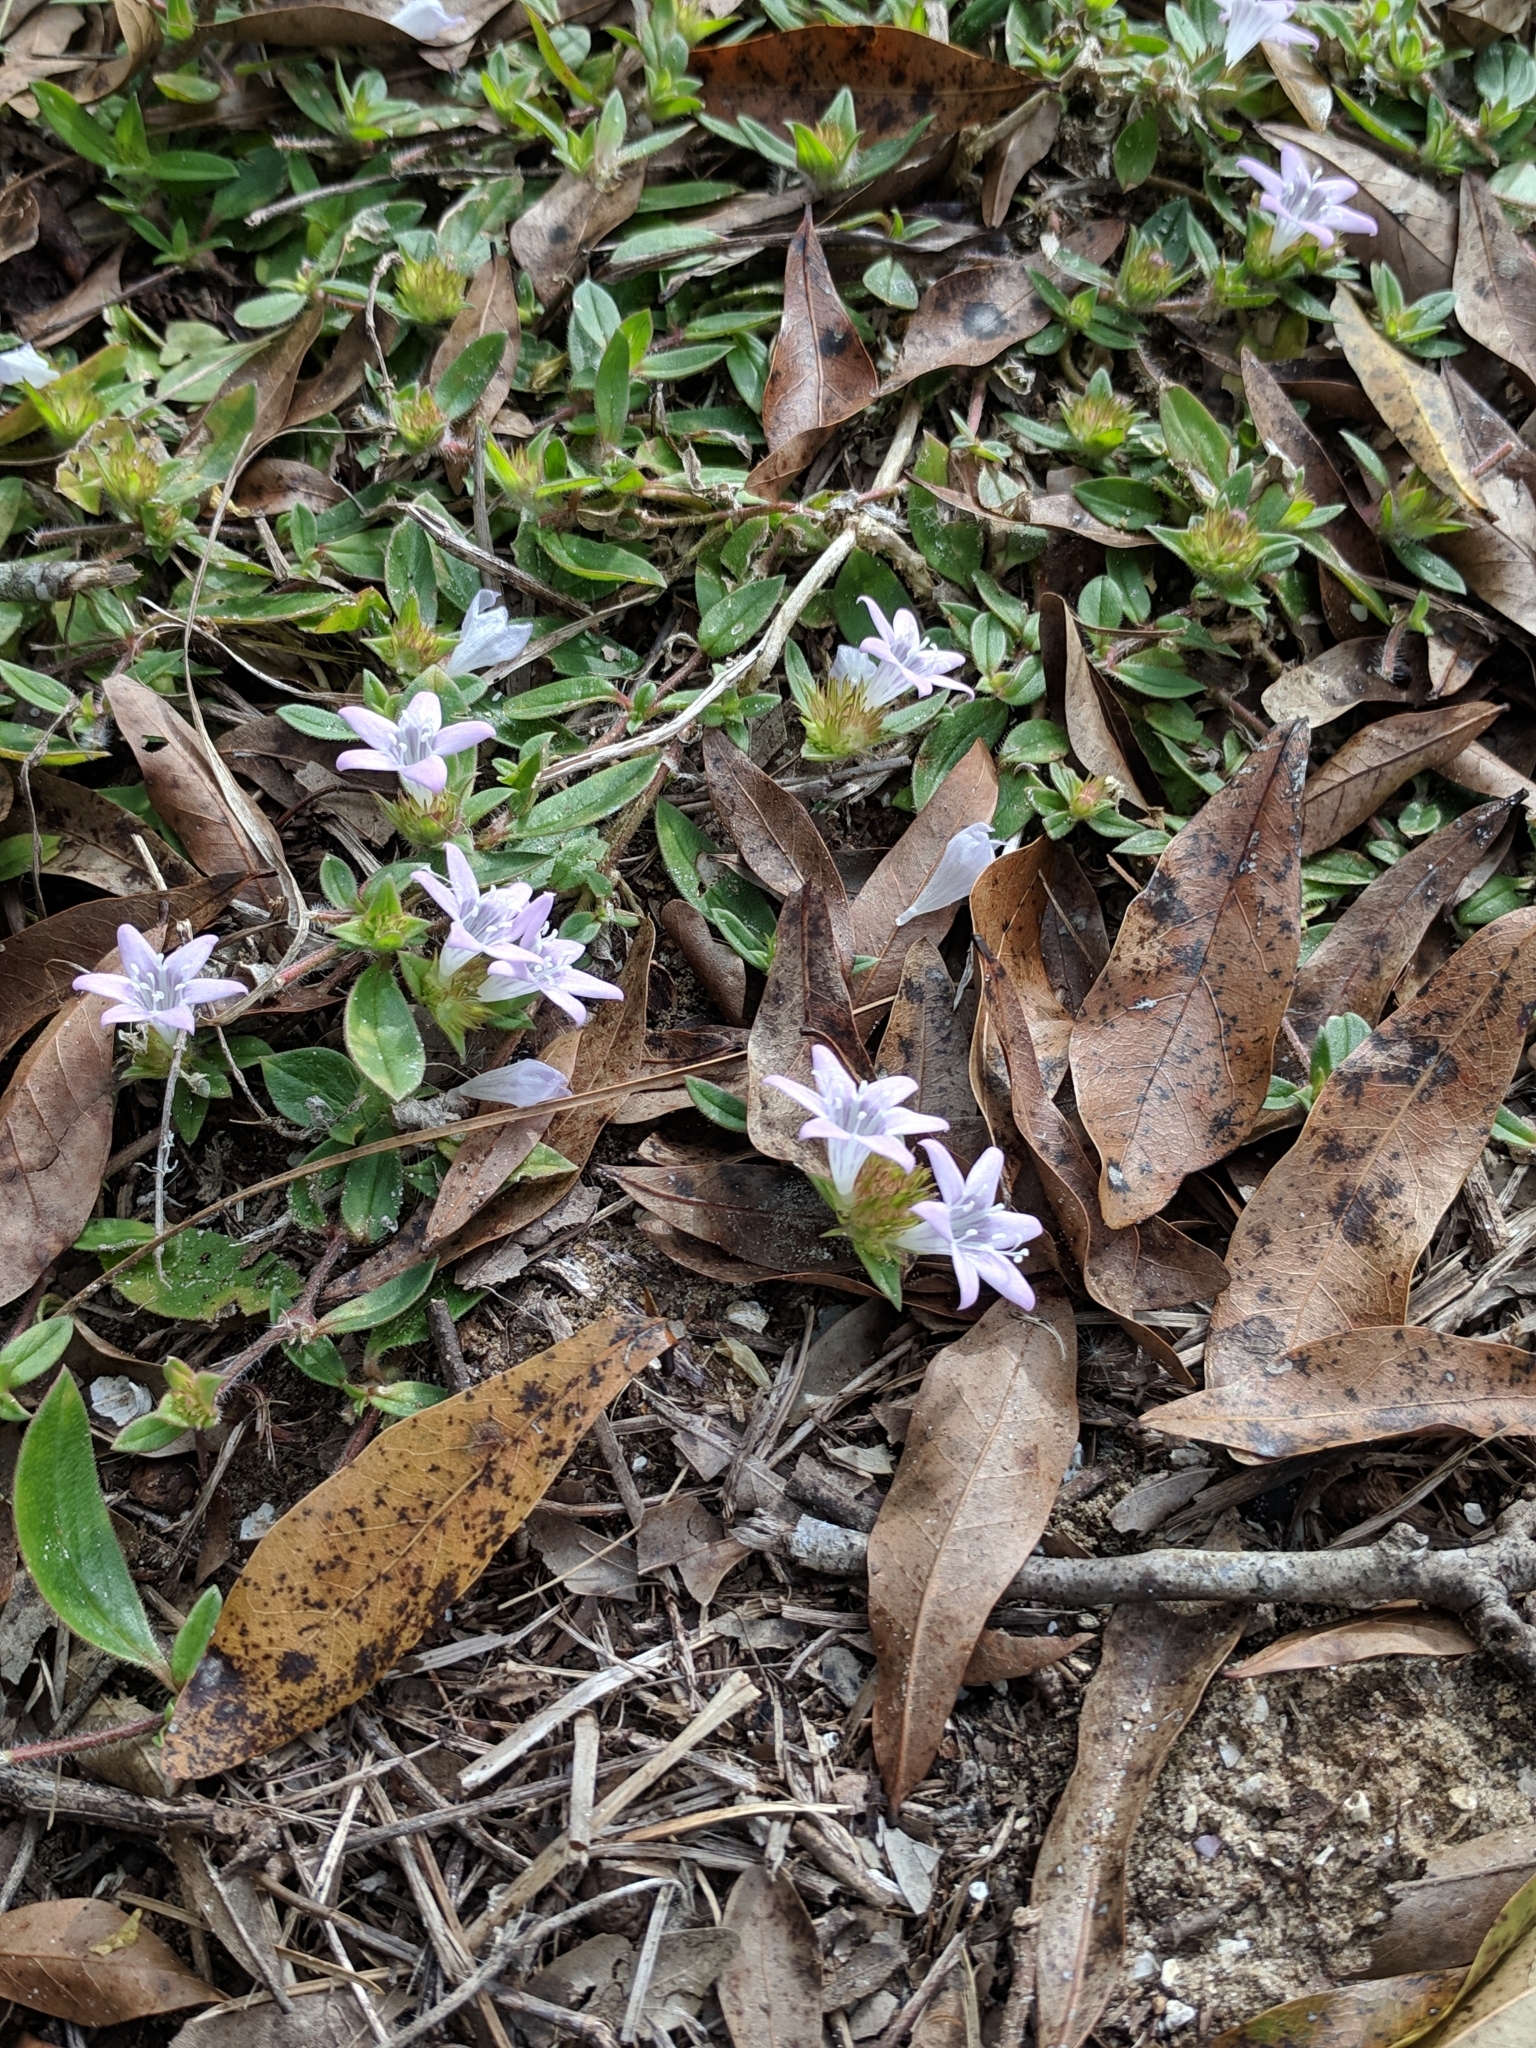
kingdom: Plantae
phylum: Tracheophyta
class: Magnoliopsida
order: Gentianales
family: Rubiaceae
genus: Richardia
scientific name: Richardia grandiflora
